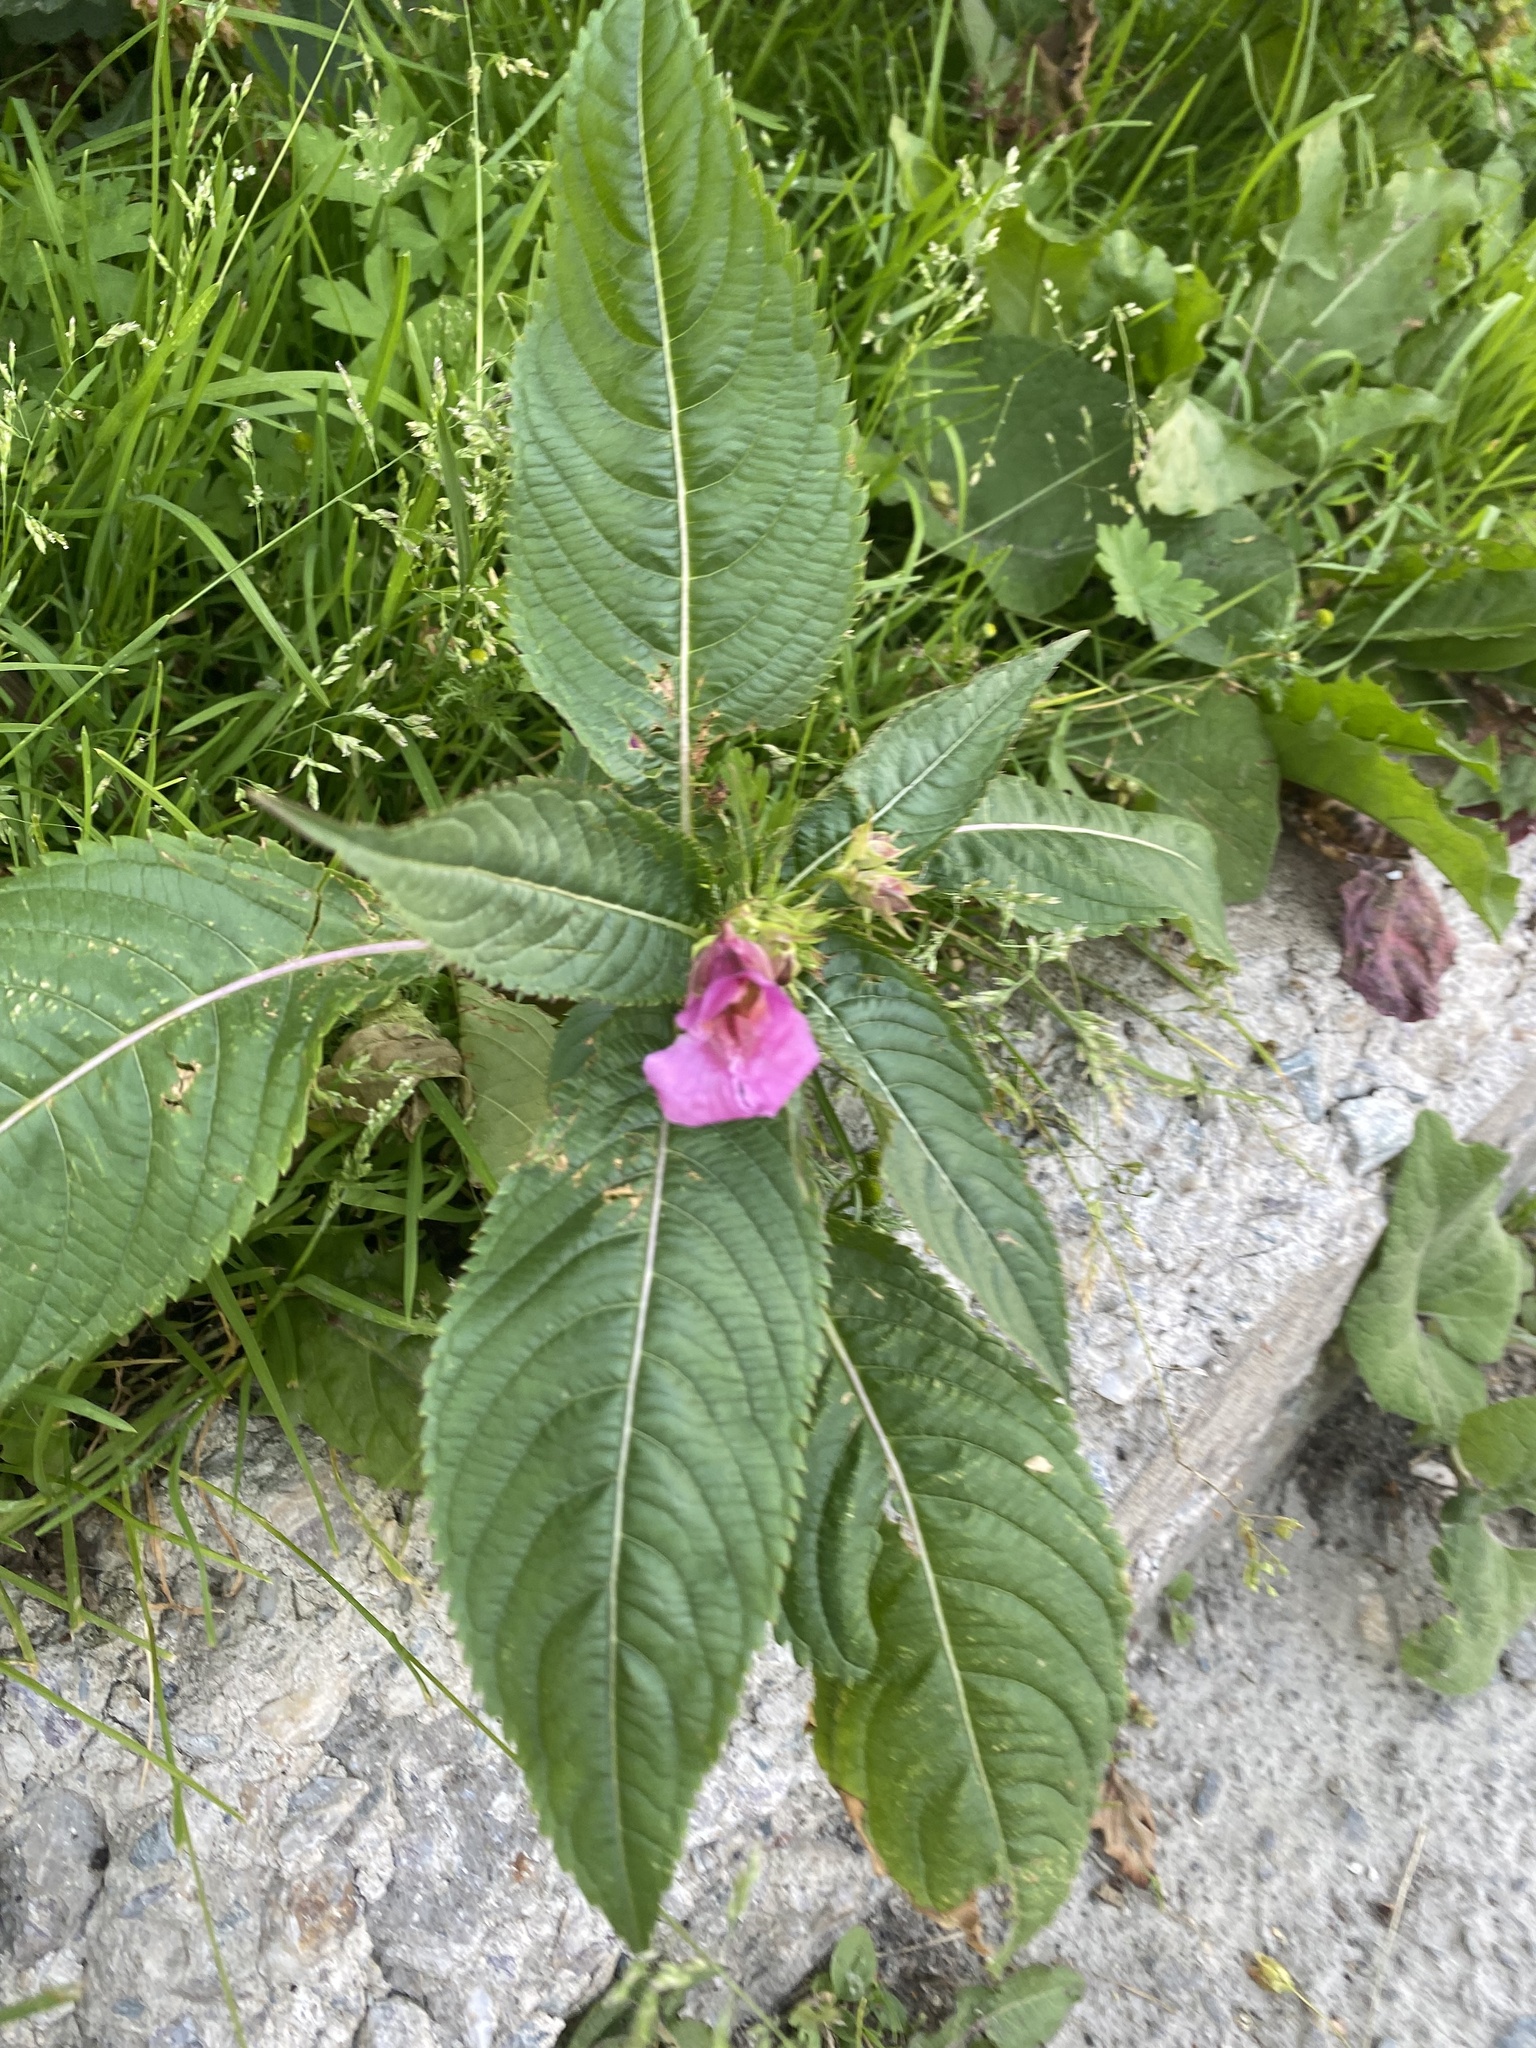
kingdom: Plantae
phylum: Tracheophyta
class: Magnoliopsida
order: Ericales
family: Balsaminaceae
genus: Impatiens
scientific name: Impatiens glandulifera
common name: Himalayan balsam
